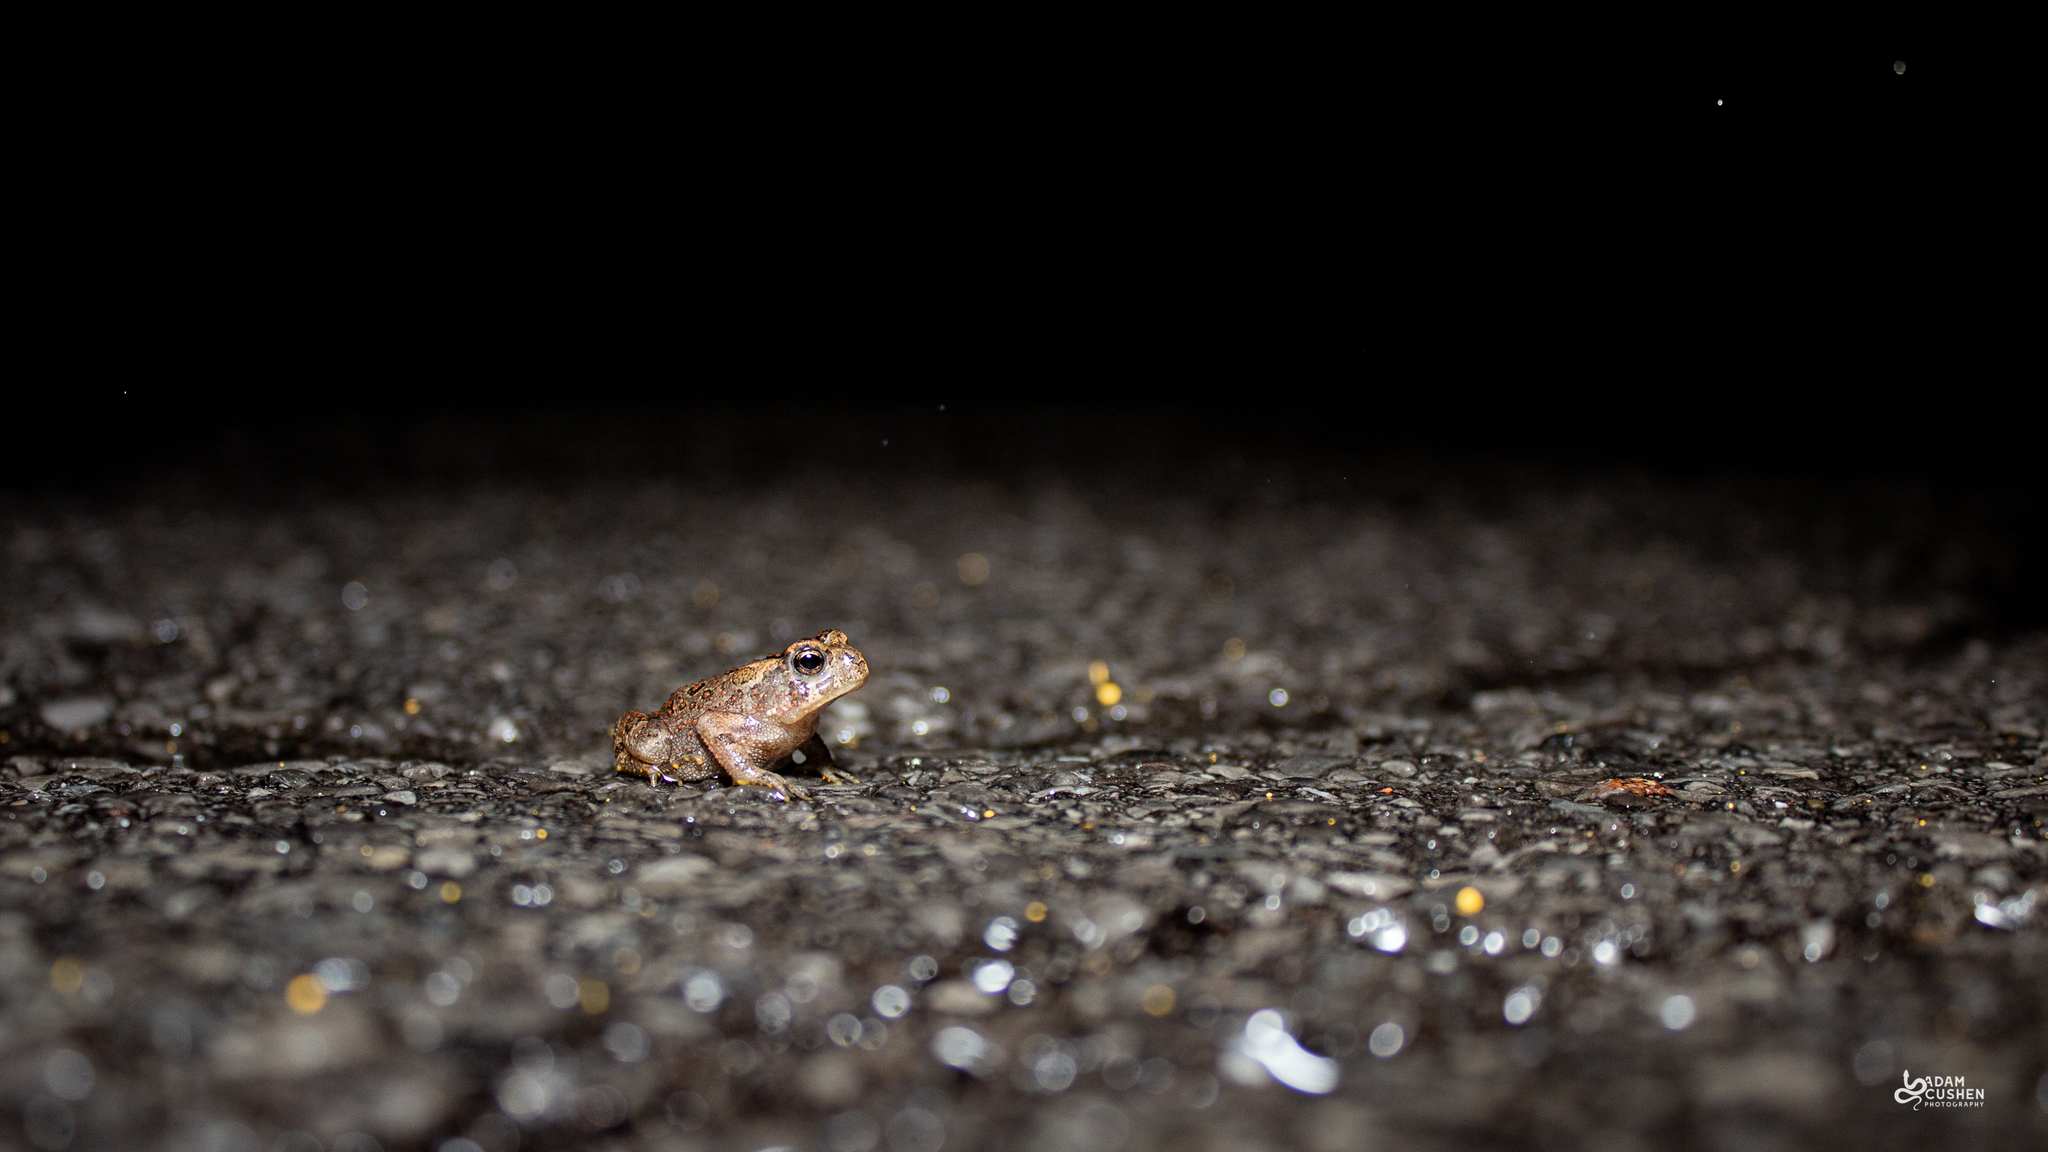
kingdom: Animalia
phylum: Chordata
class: Amphibia
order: Anura
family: Bufonidae
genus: Anaxyrus
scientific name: Anaxyrus americanus
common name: American toad
